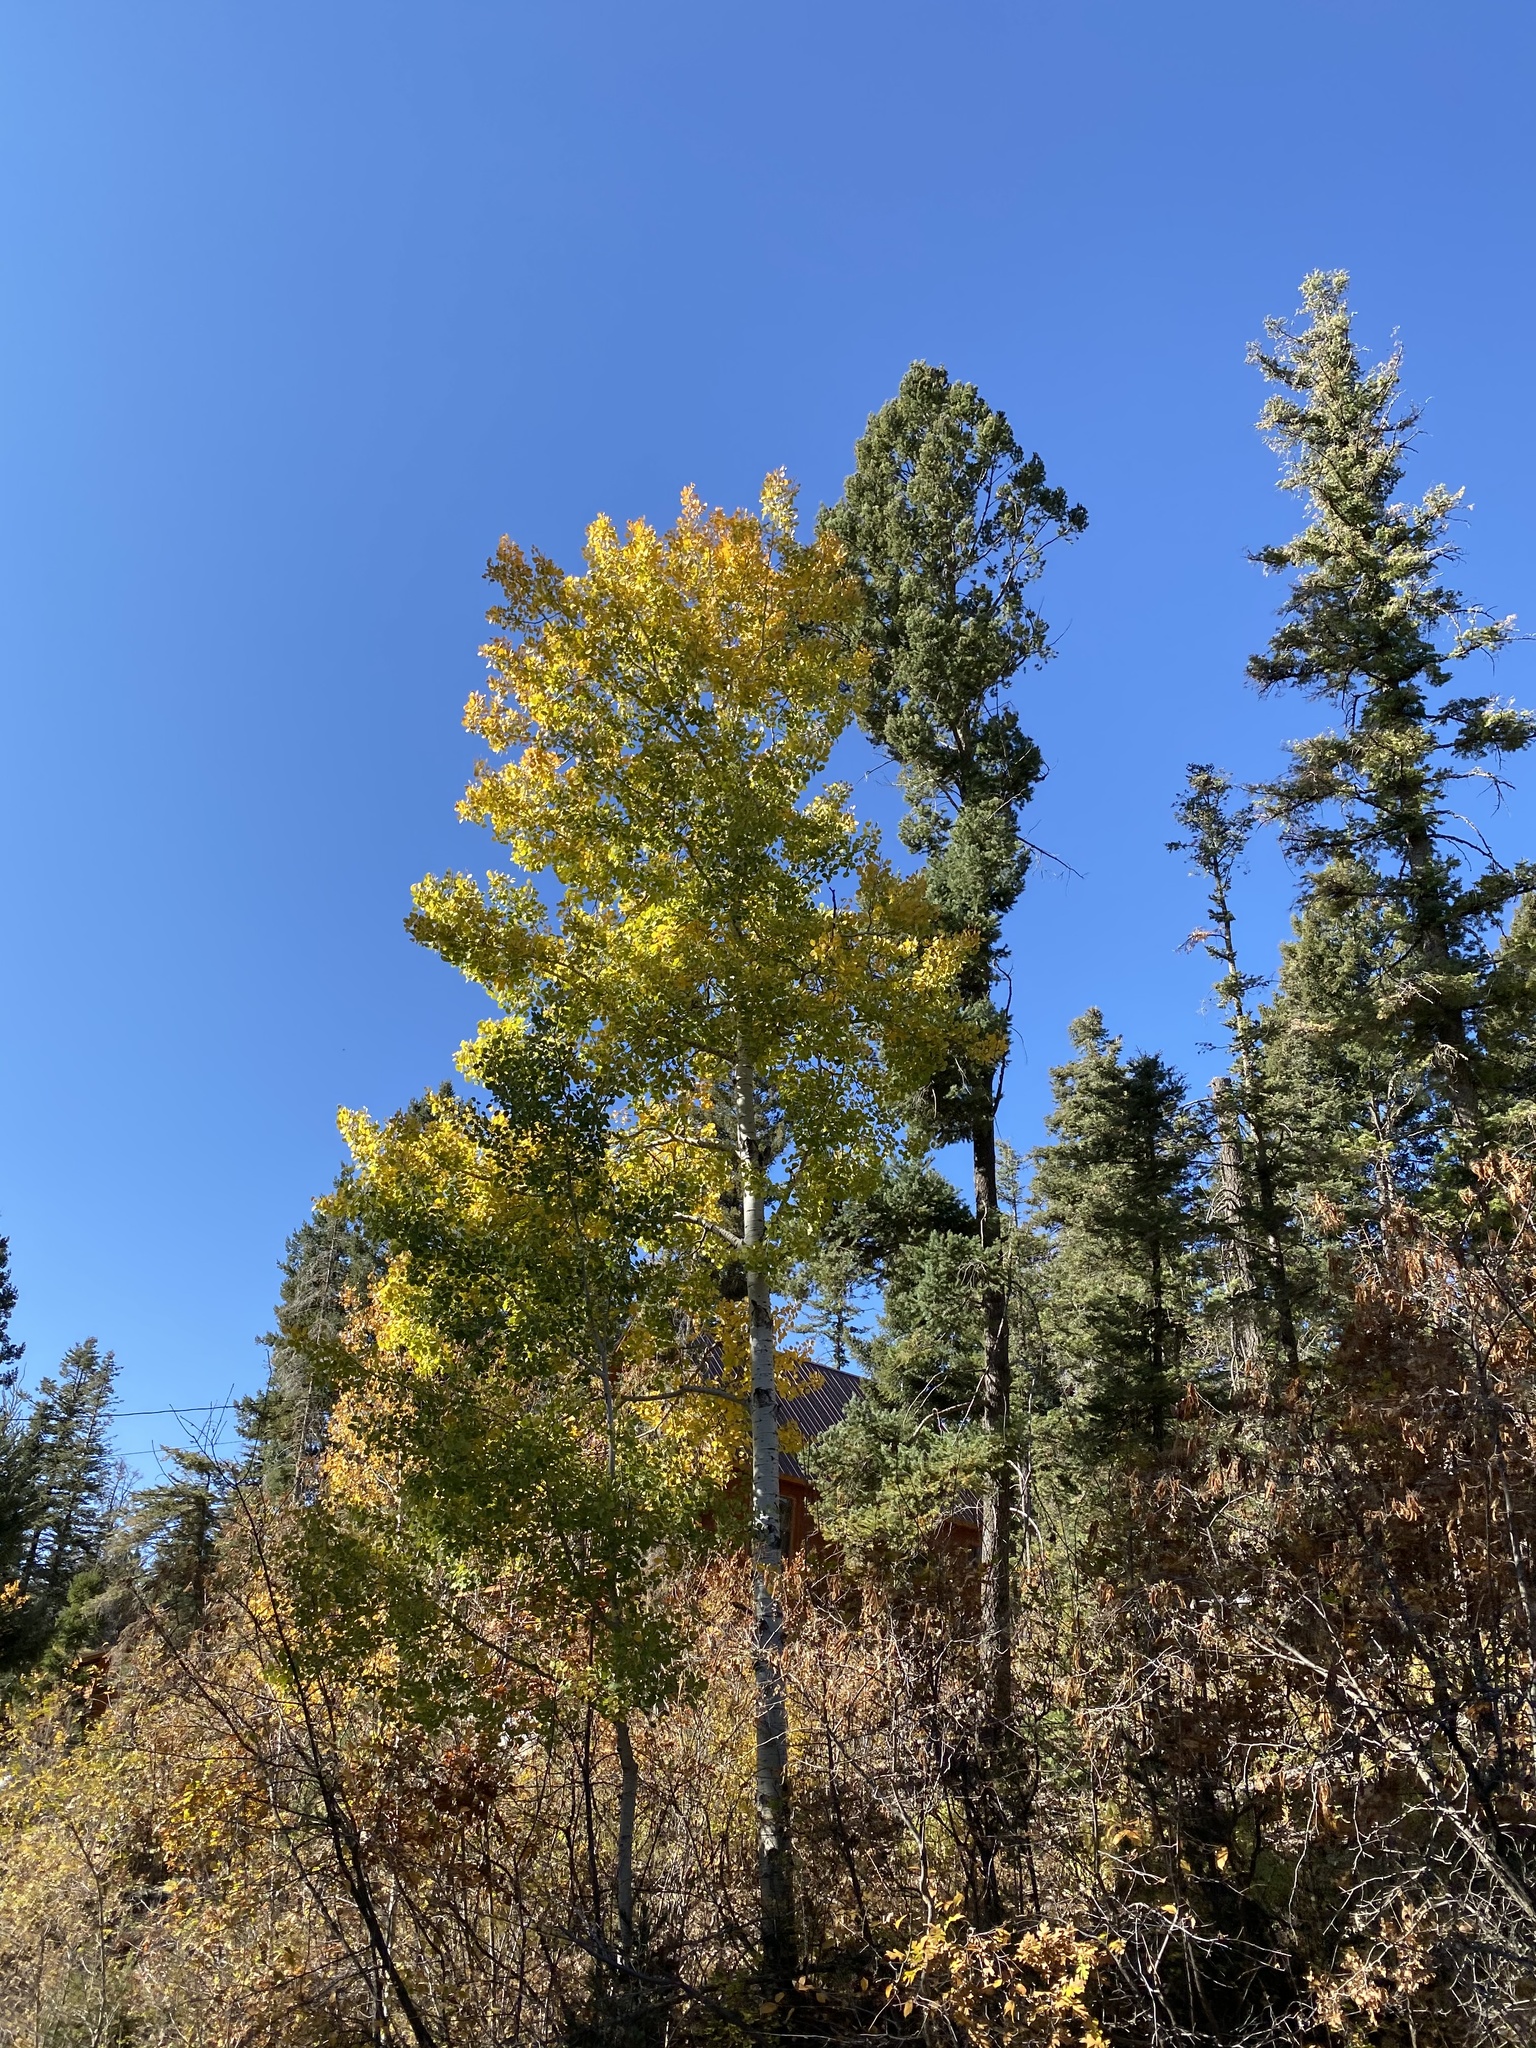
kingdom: Plantae
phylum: Tracheophyta
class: Magnoliopsida
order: Malpighiales
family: Salicaceae
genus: Populus
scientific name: Populus tremuloides
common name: Quaking aspen
